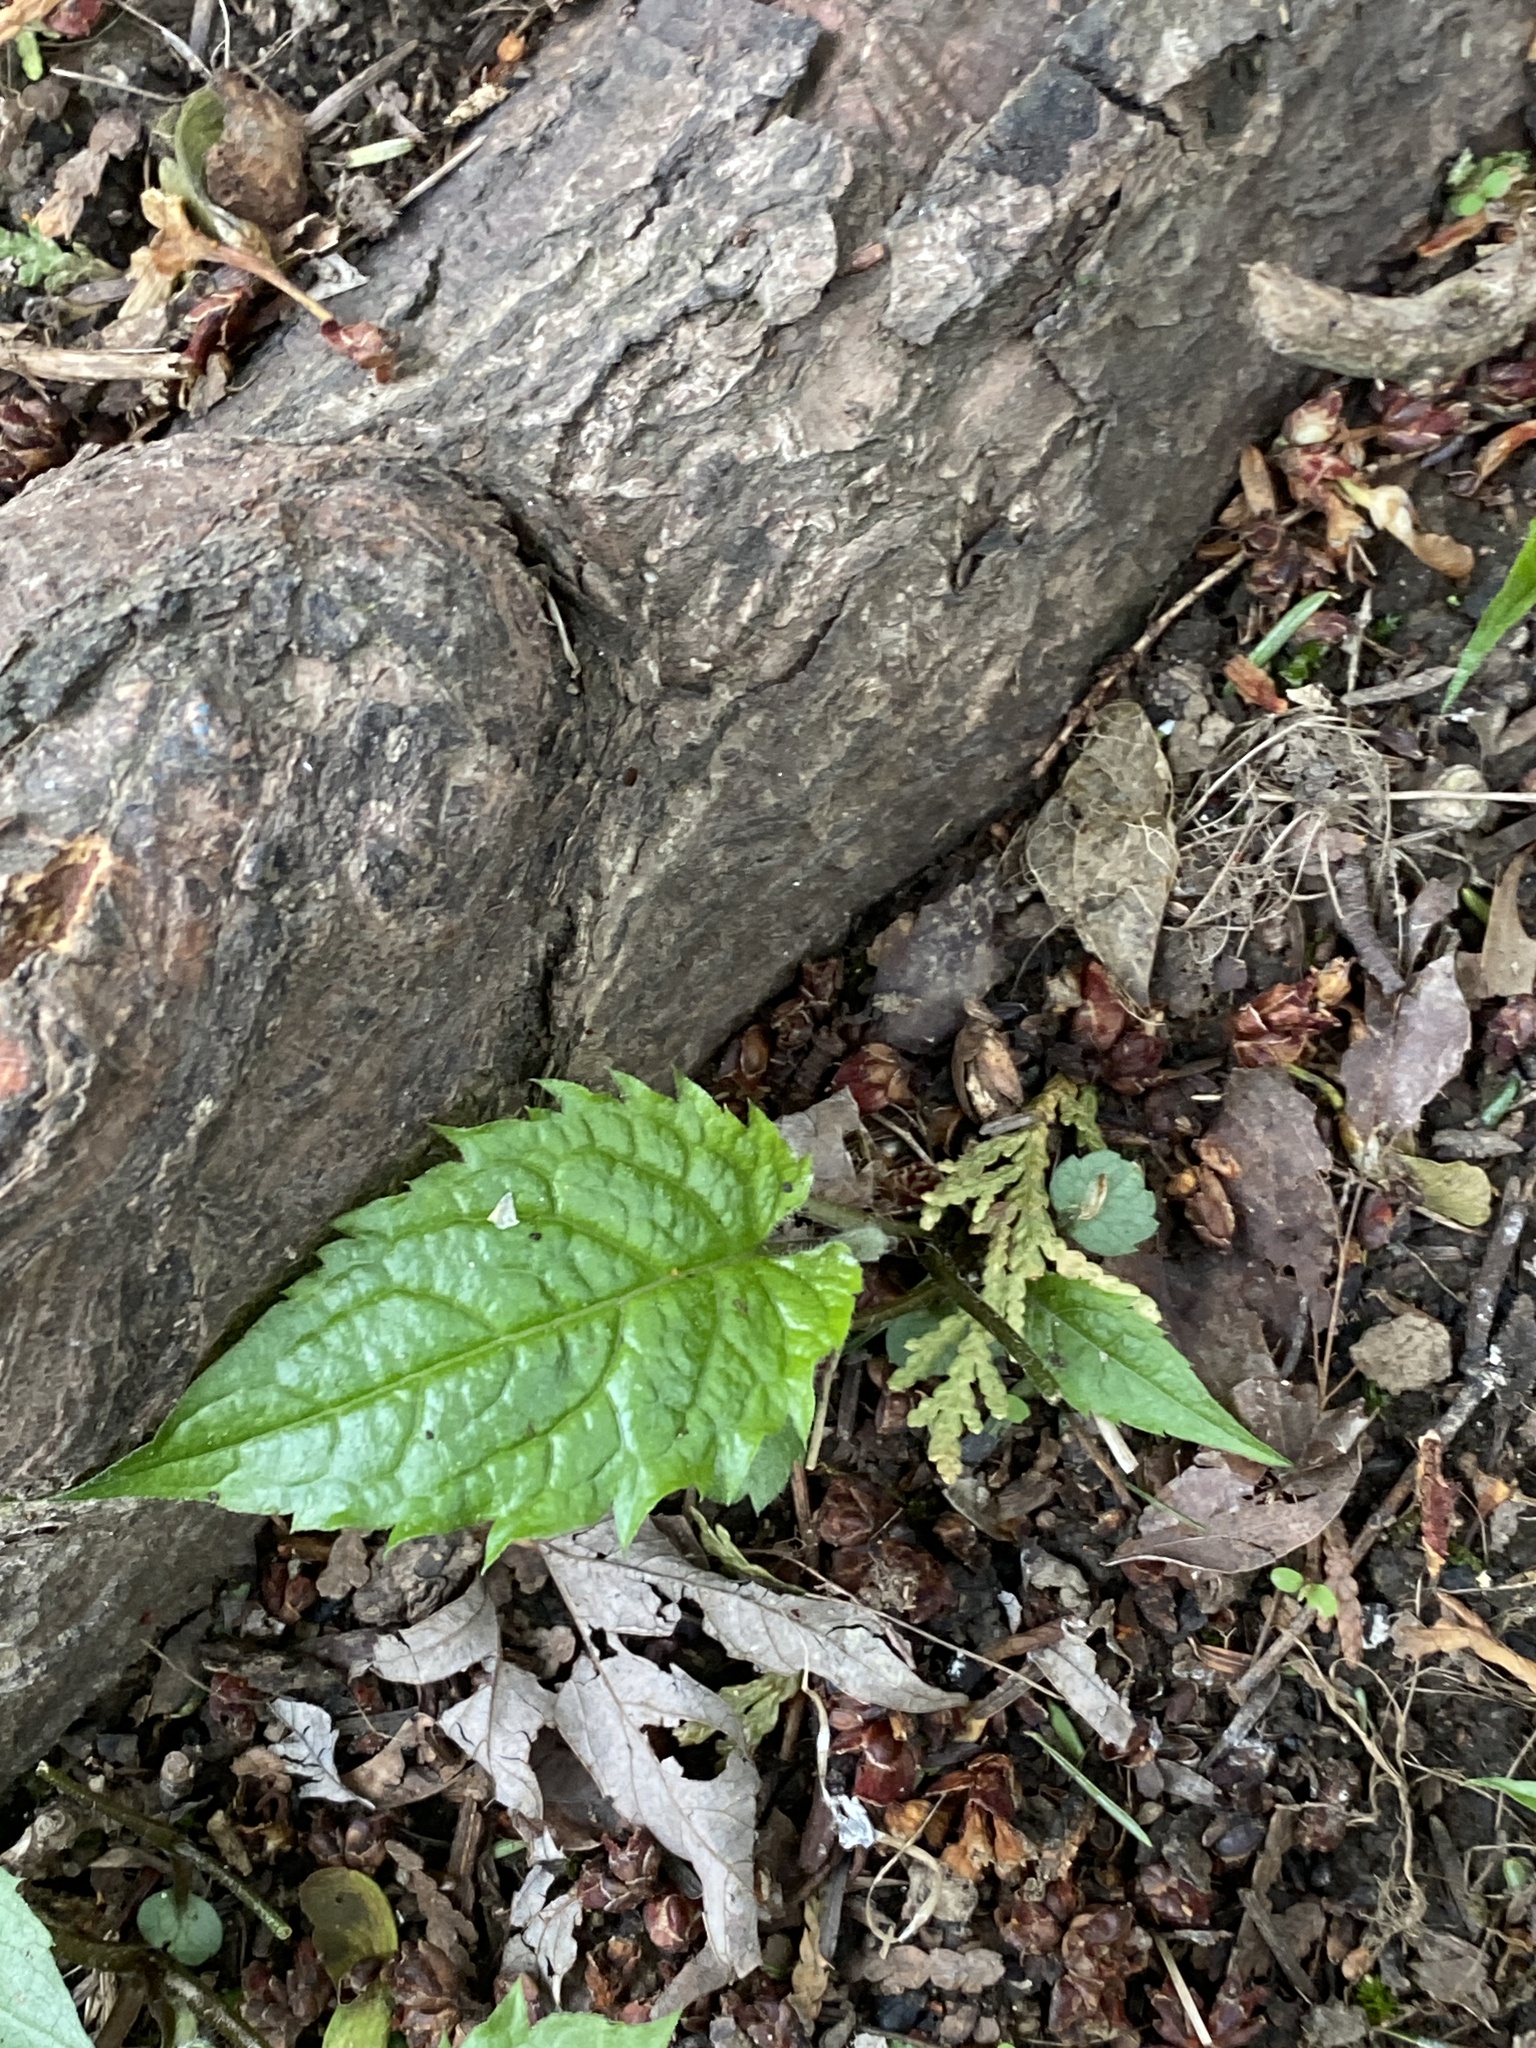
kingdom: Plantae
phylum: Tracheophyta
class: Magnoliopsida
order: Asterales
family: Asteraceae
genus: Eurybia
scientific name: Eurybia divaricata
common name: White wood aster
